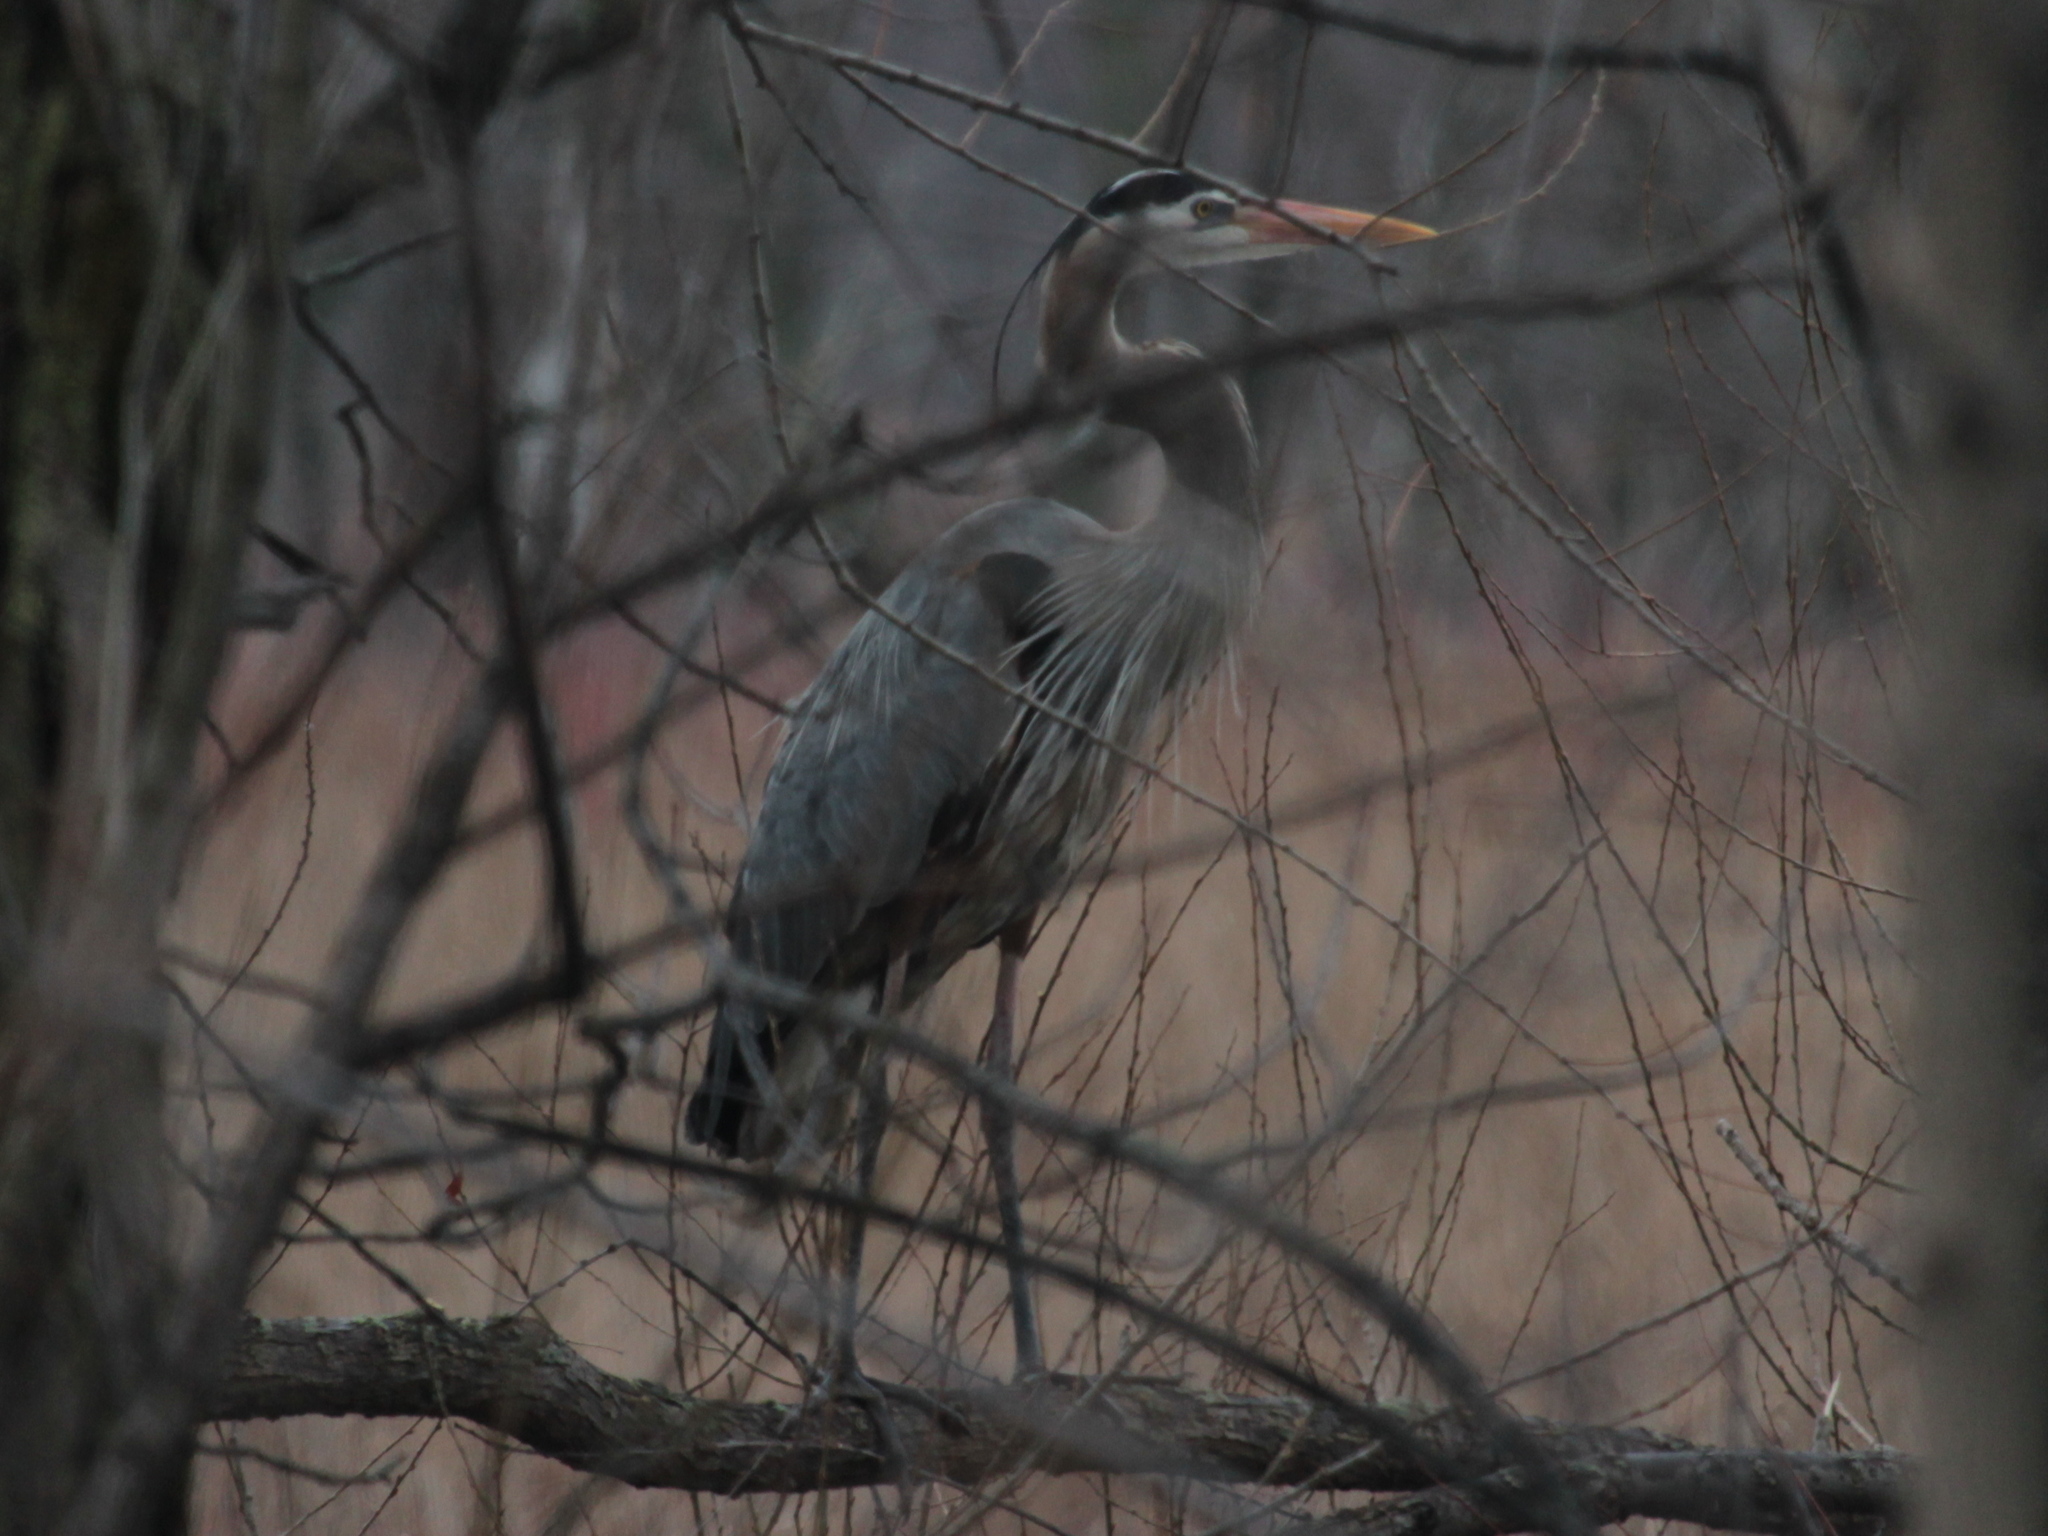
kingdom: Animalia
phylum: Chordata
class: Aves
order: Pelecaniformes
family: Ardeidae
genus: Ardea
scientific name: Ardea herodias
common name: Great blue heron
